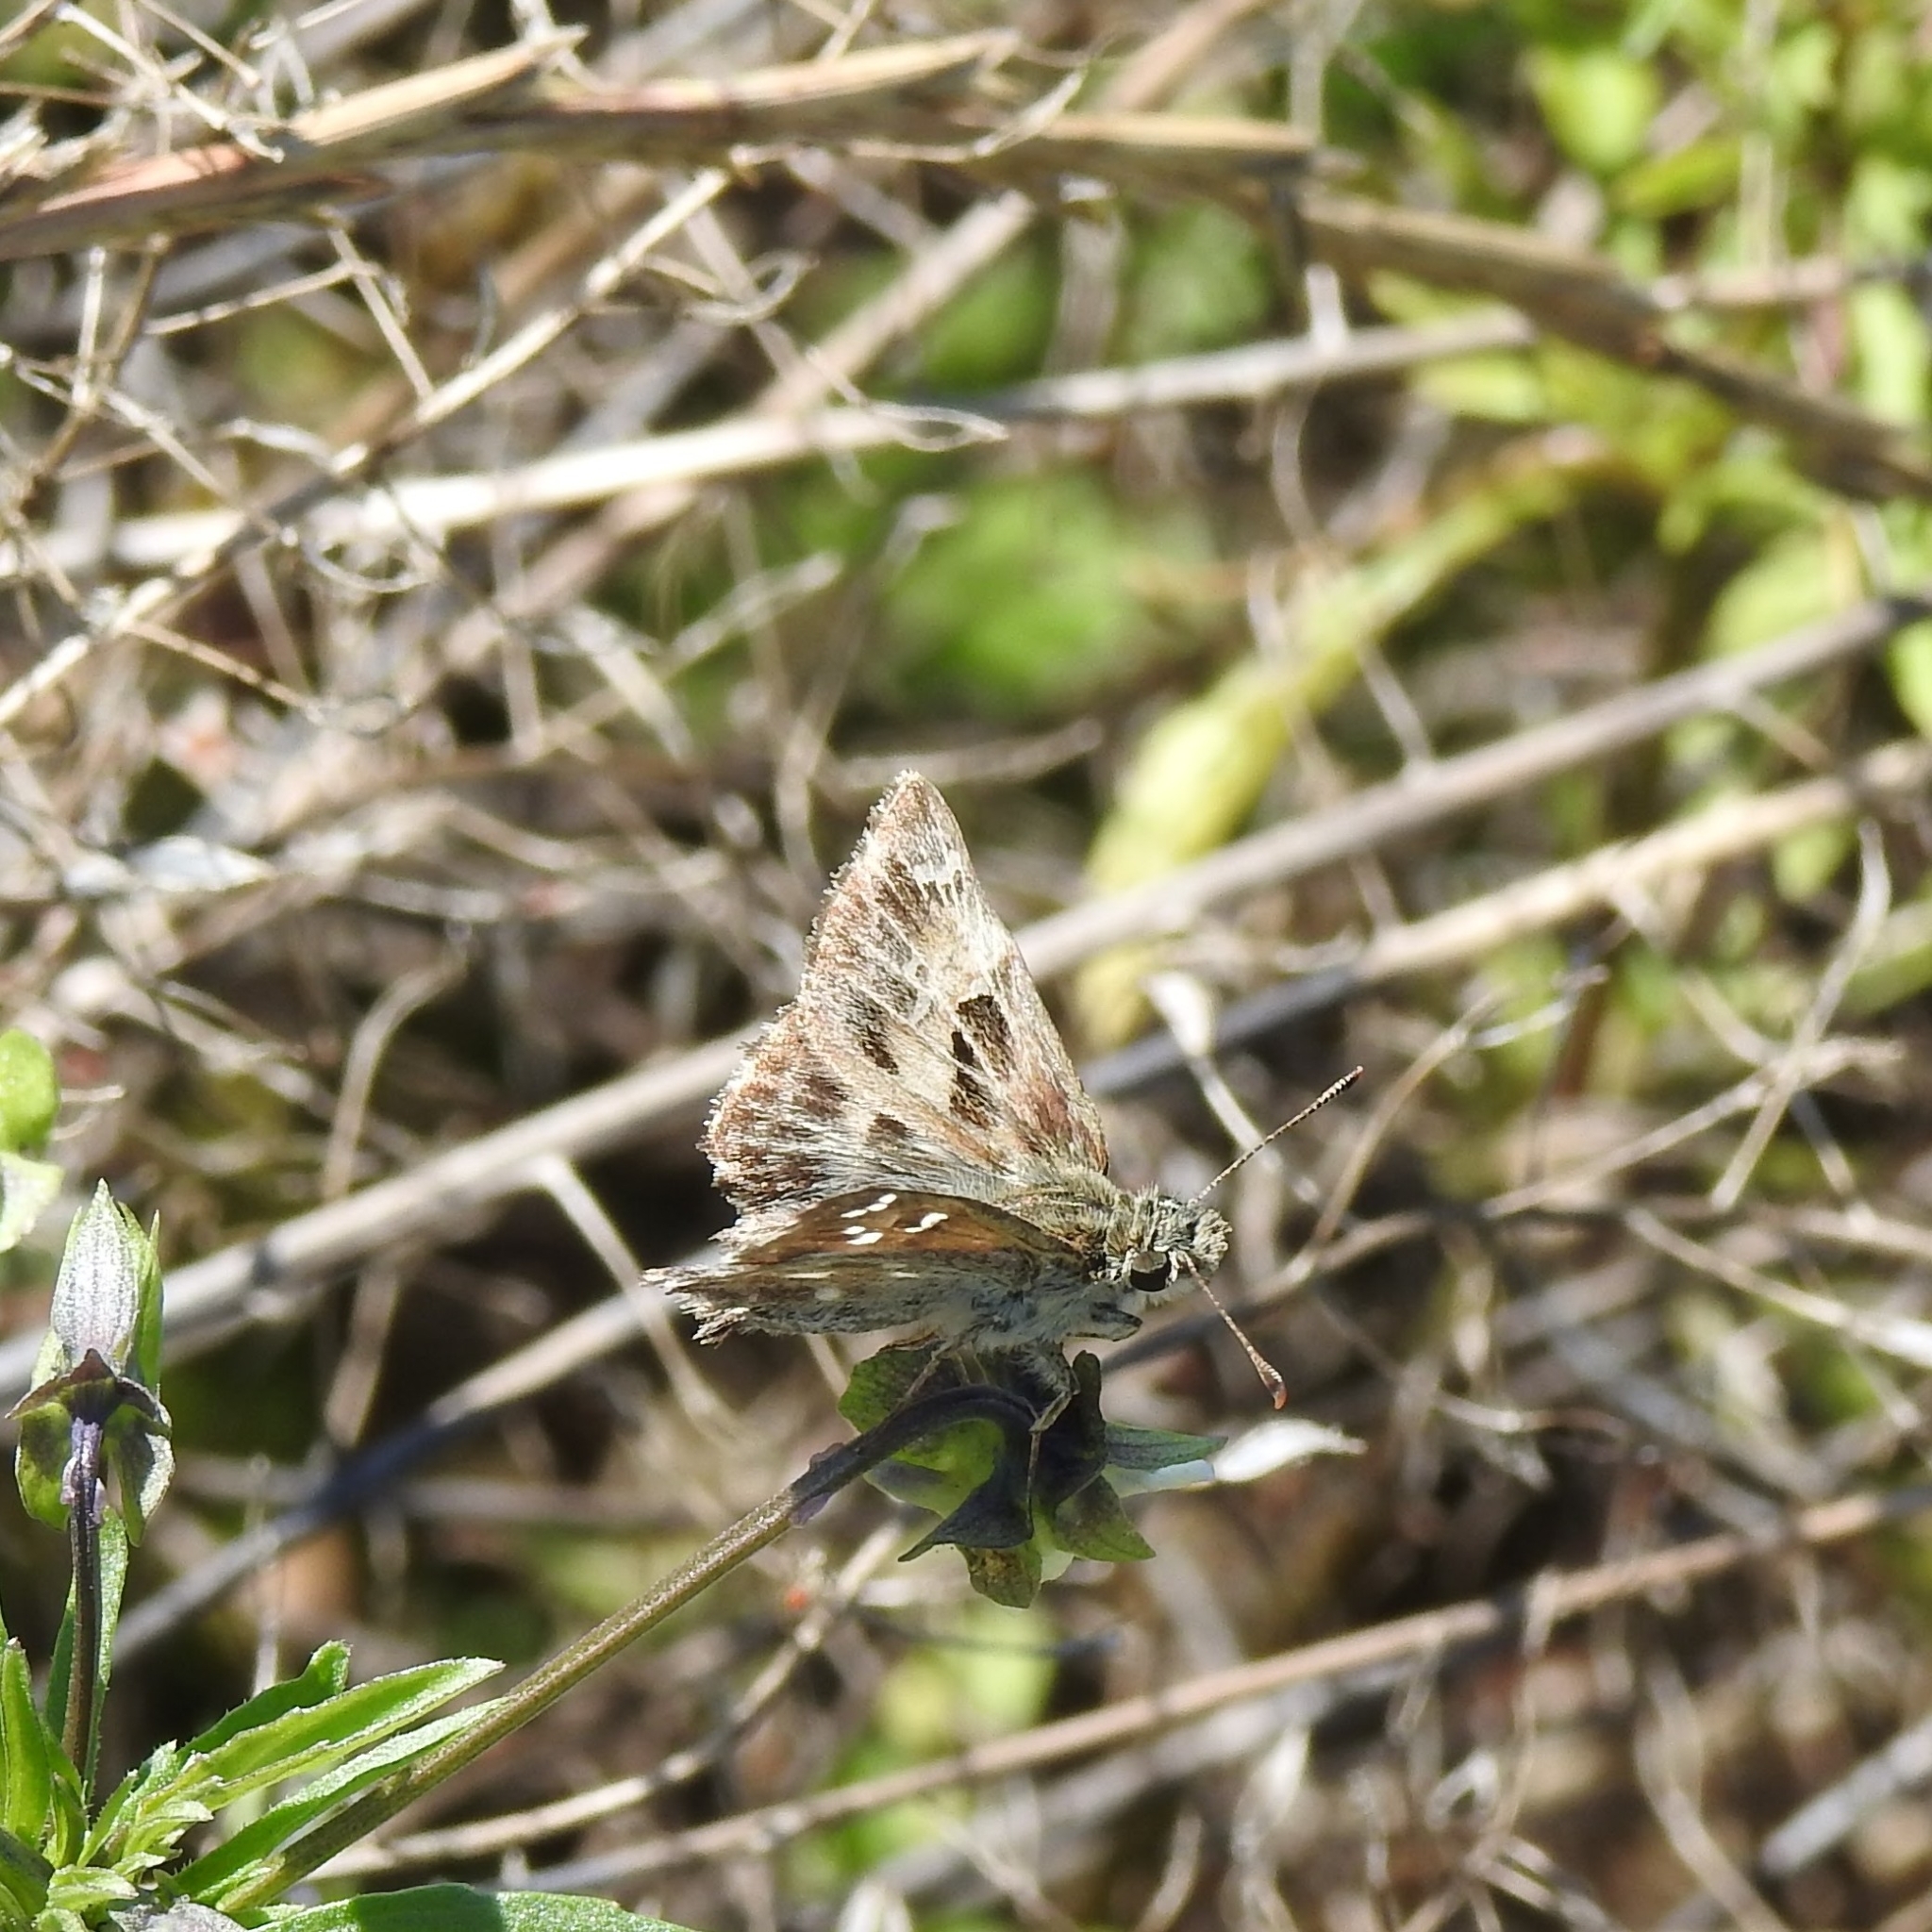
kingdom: Animalia
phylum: Arthropoda
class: Insecta
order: Lepidoptera
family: Hesperiidae
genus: Carcharodus
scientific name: Carcharodus alceae
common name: Mallow skipper
